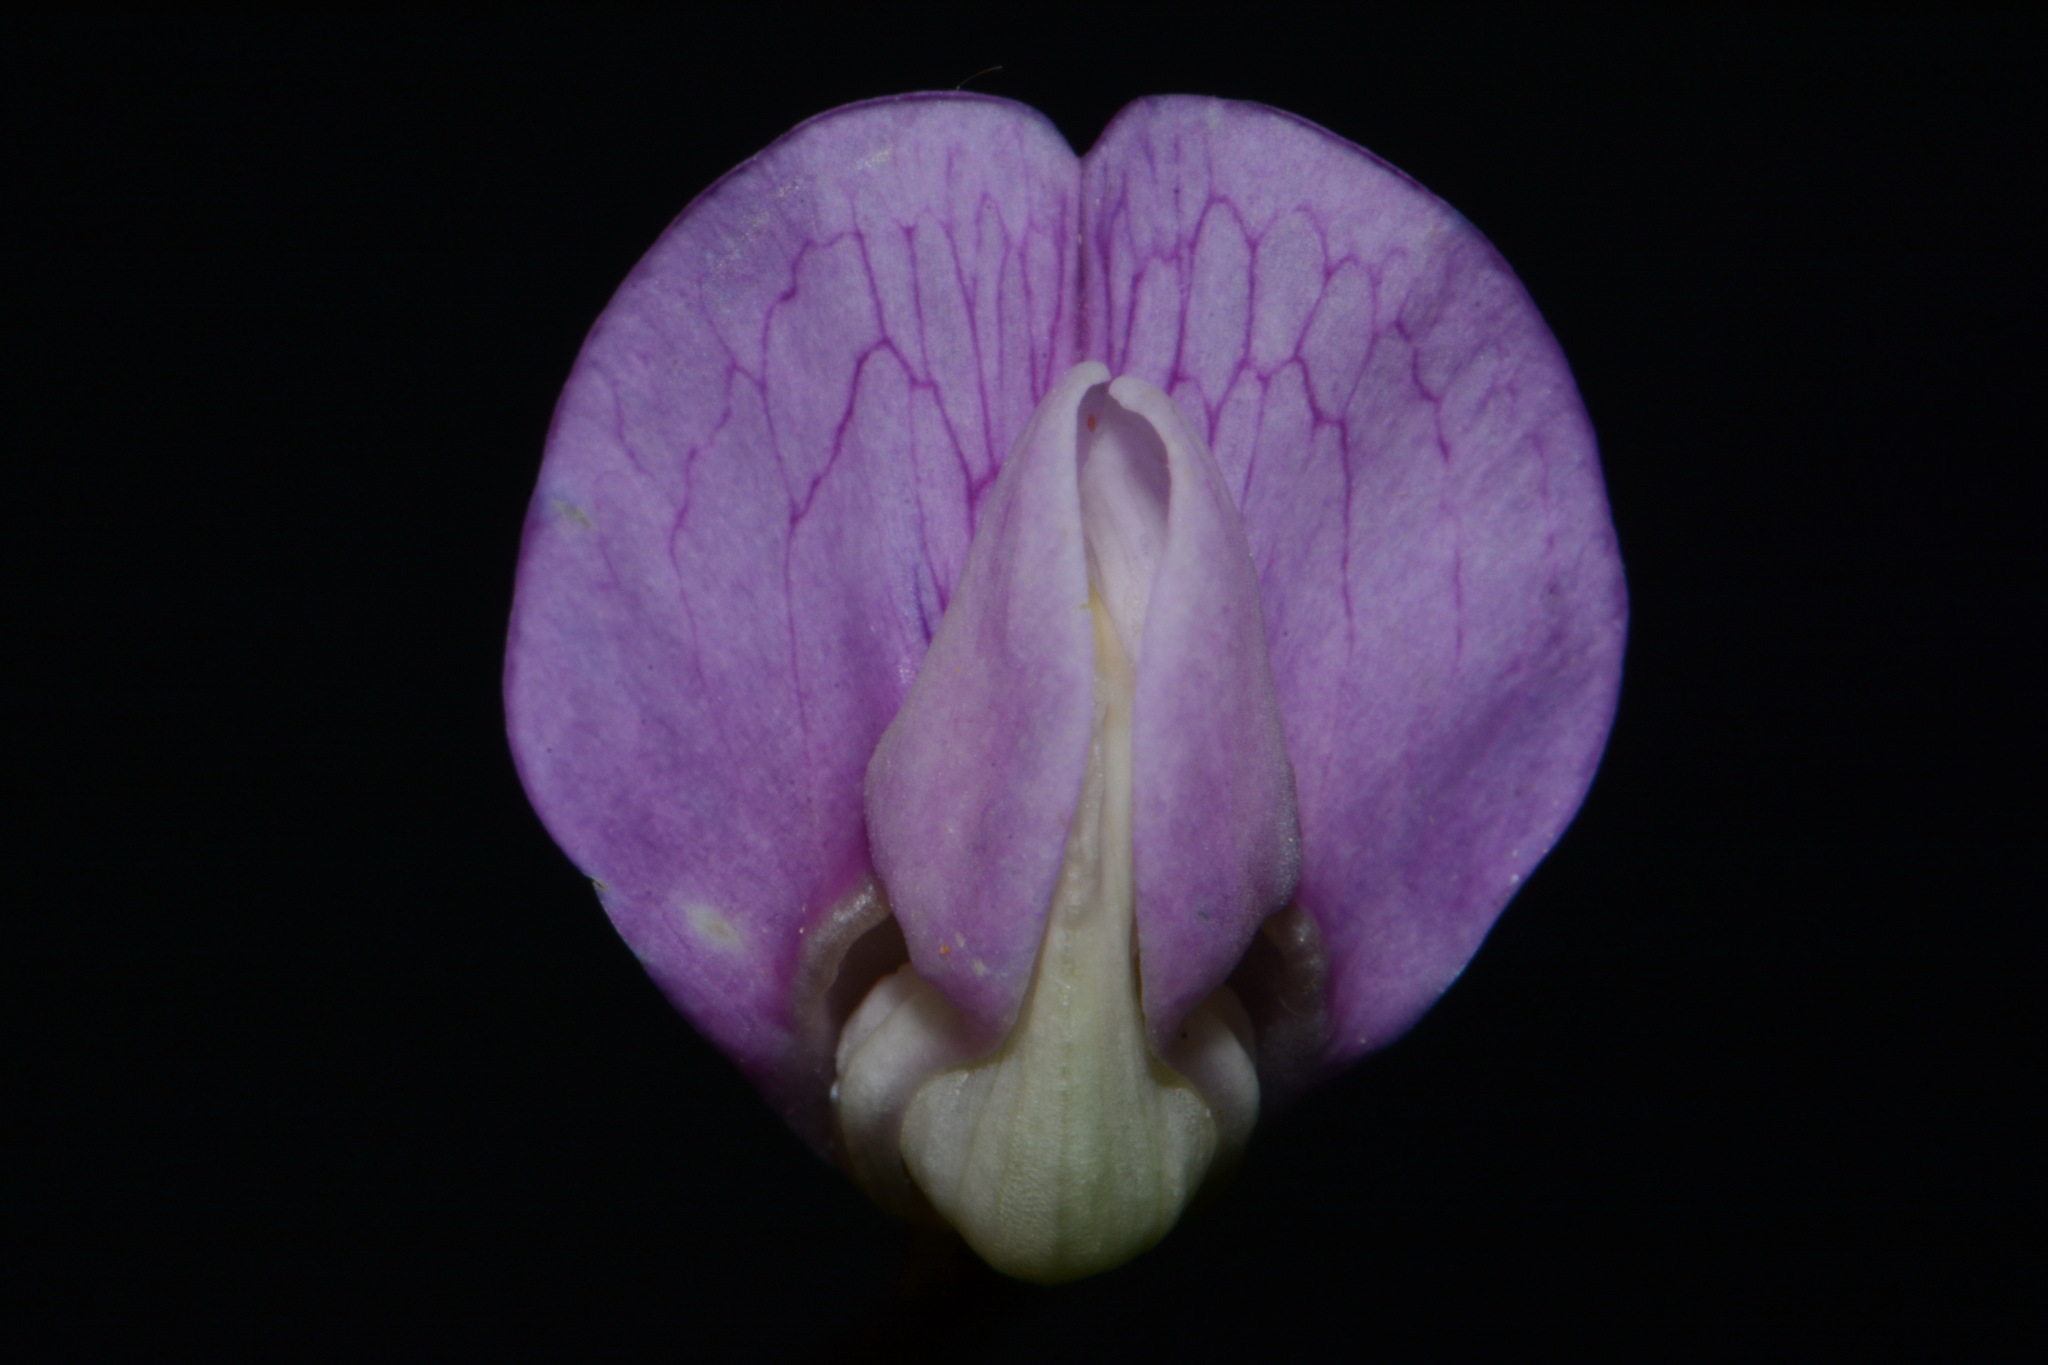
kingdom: Plantae
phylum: Tracheophyta
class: Magnoliopsida
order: Fabales
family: Fabaceae
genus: Lathyrus
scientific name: Lathyrus palustris
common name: Marsh pea
